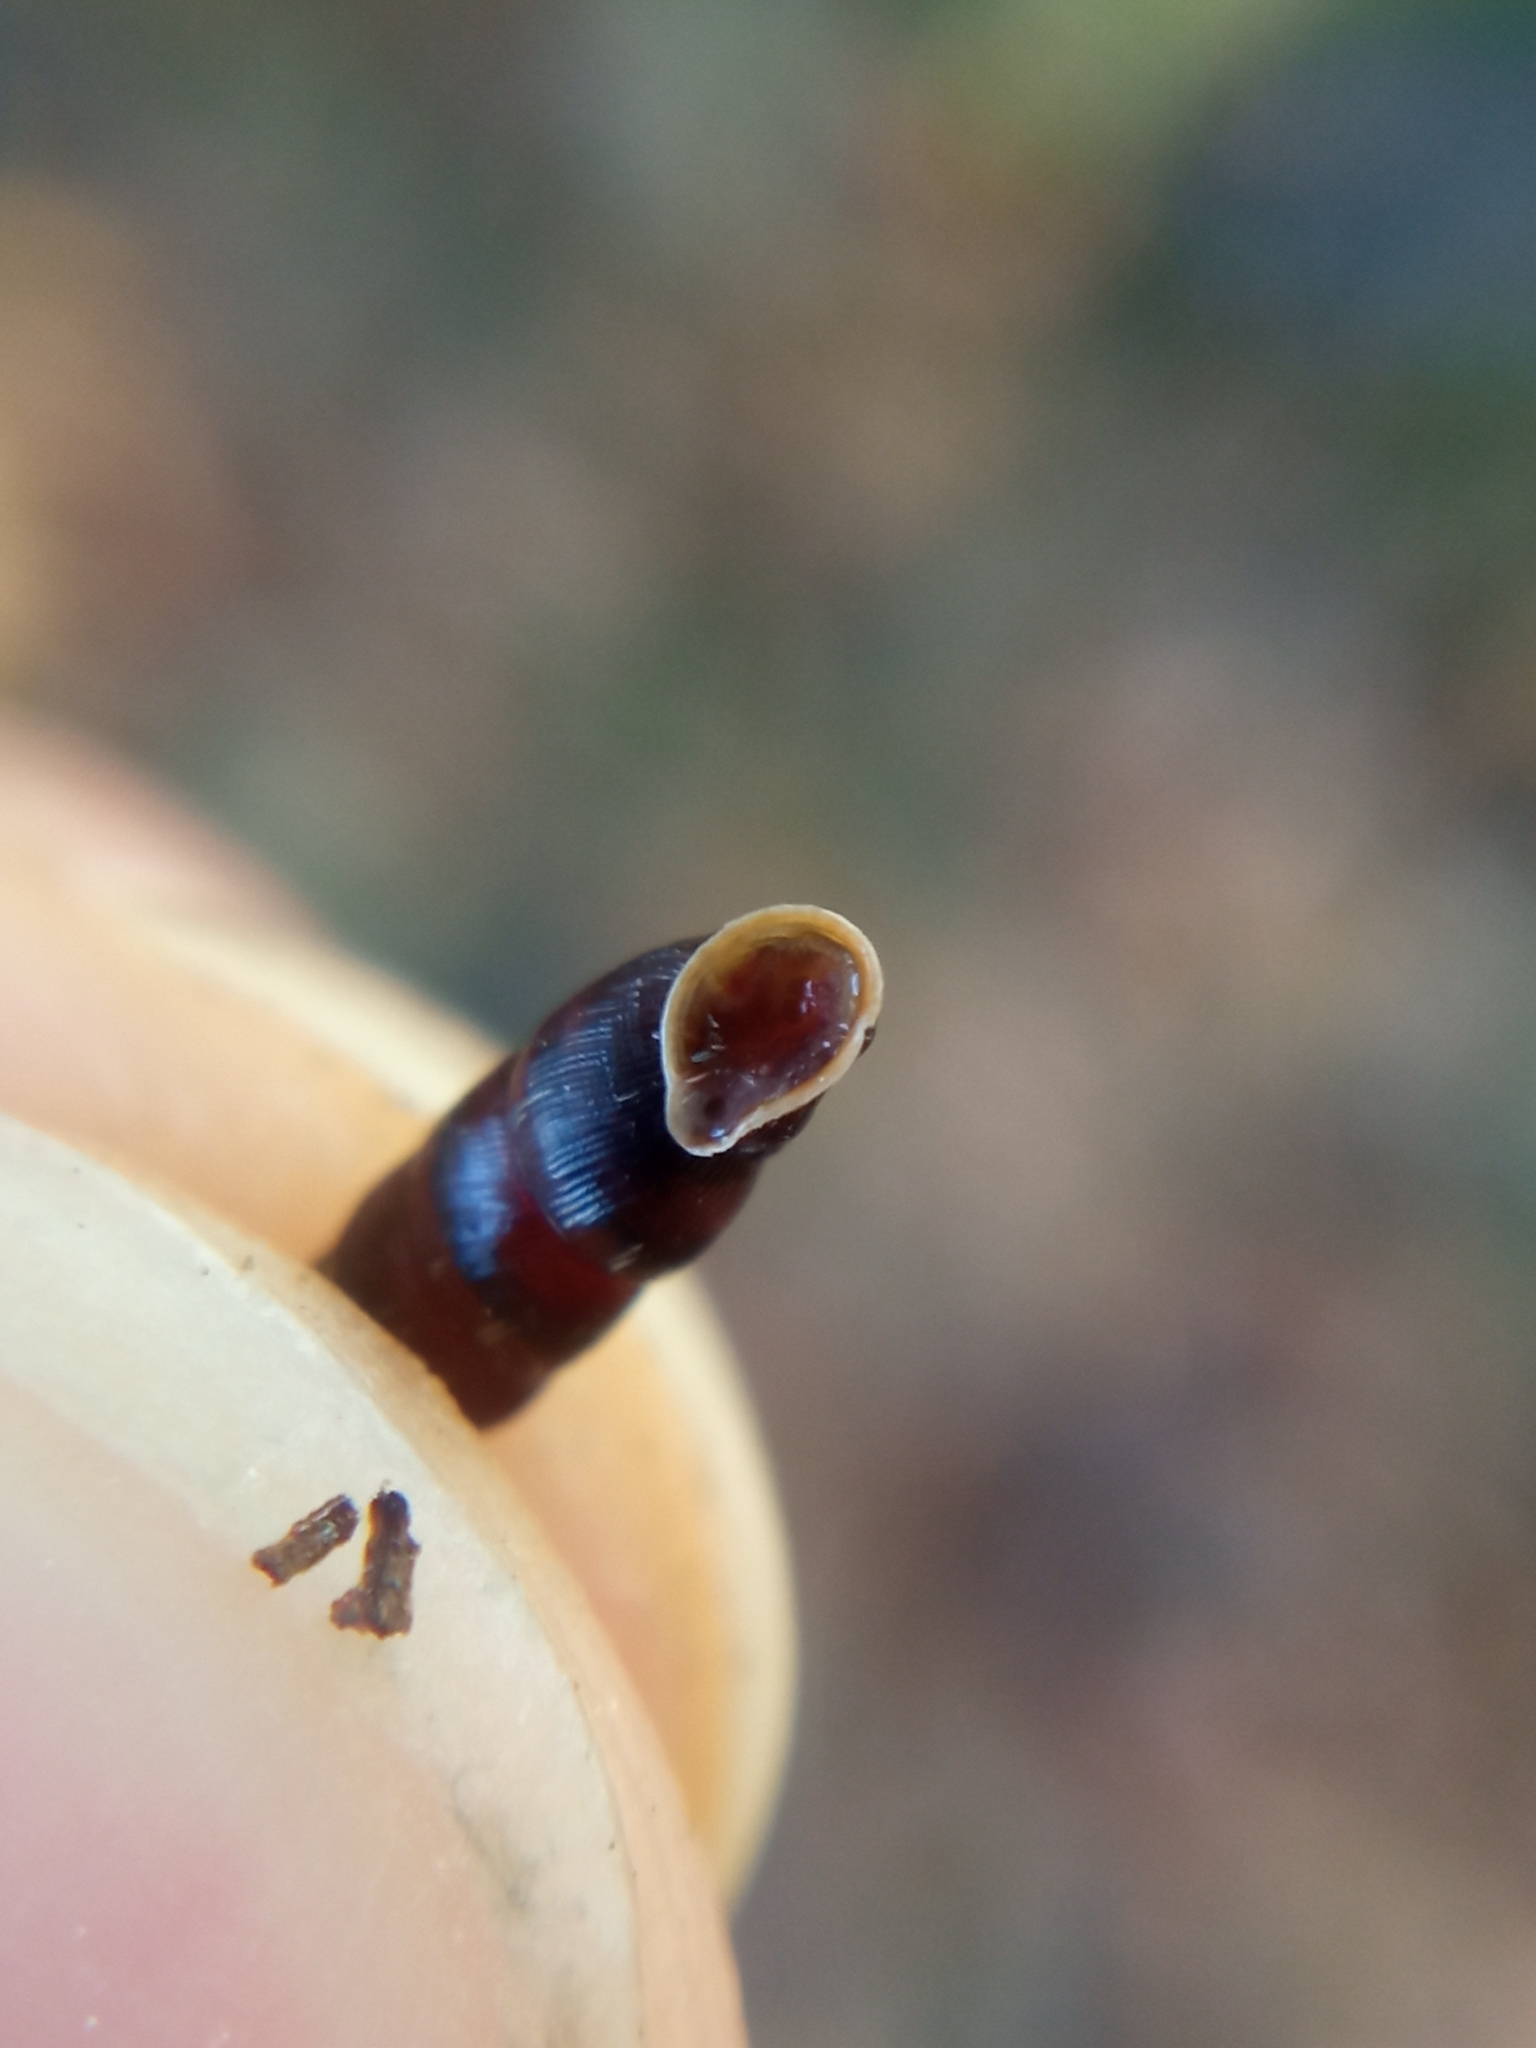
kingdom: Animalia
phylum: Mollusca
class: Gastropoda
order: Stylommatophora
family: Clausiliidae
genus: Clausilia
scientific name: Clausilia bidentata
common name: Two-toothed door snail
